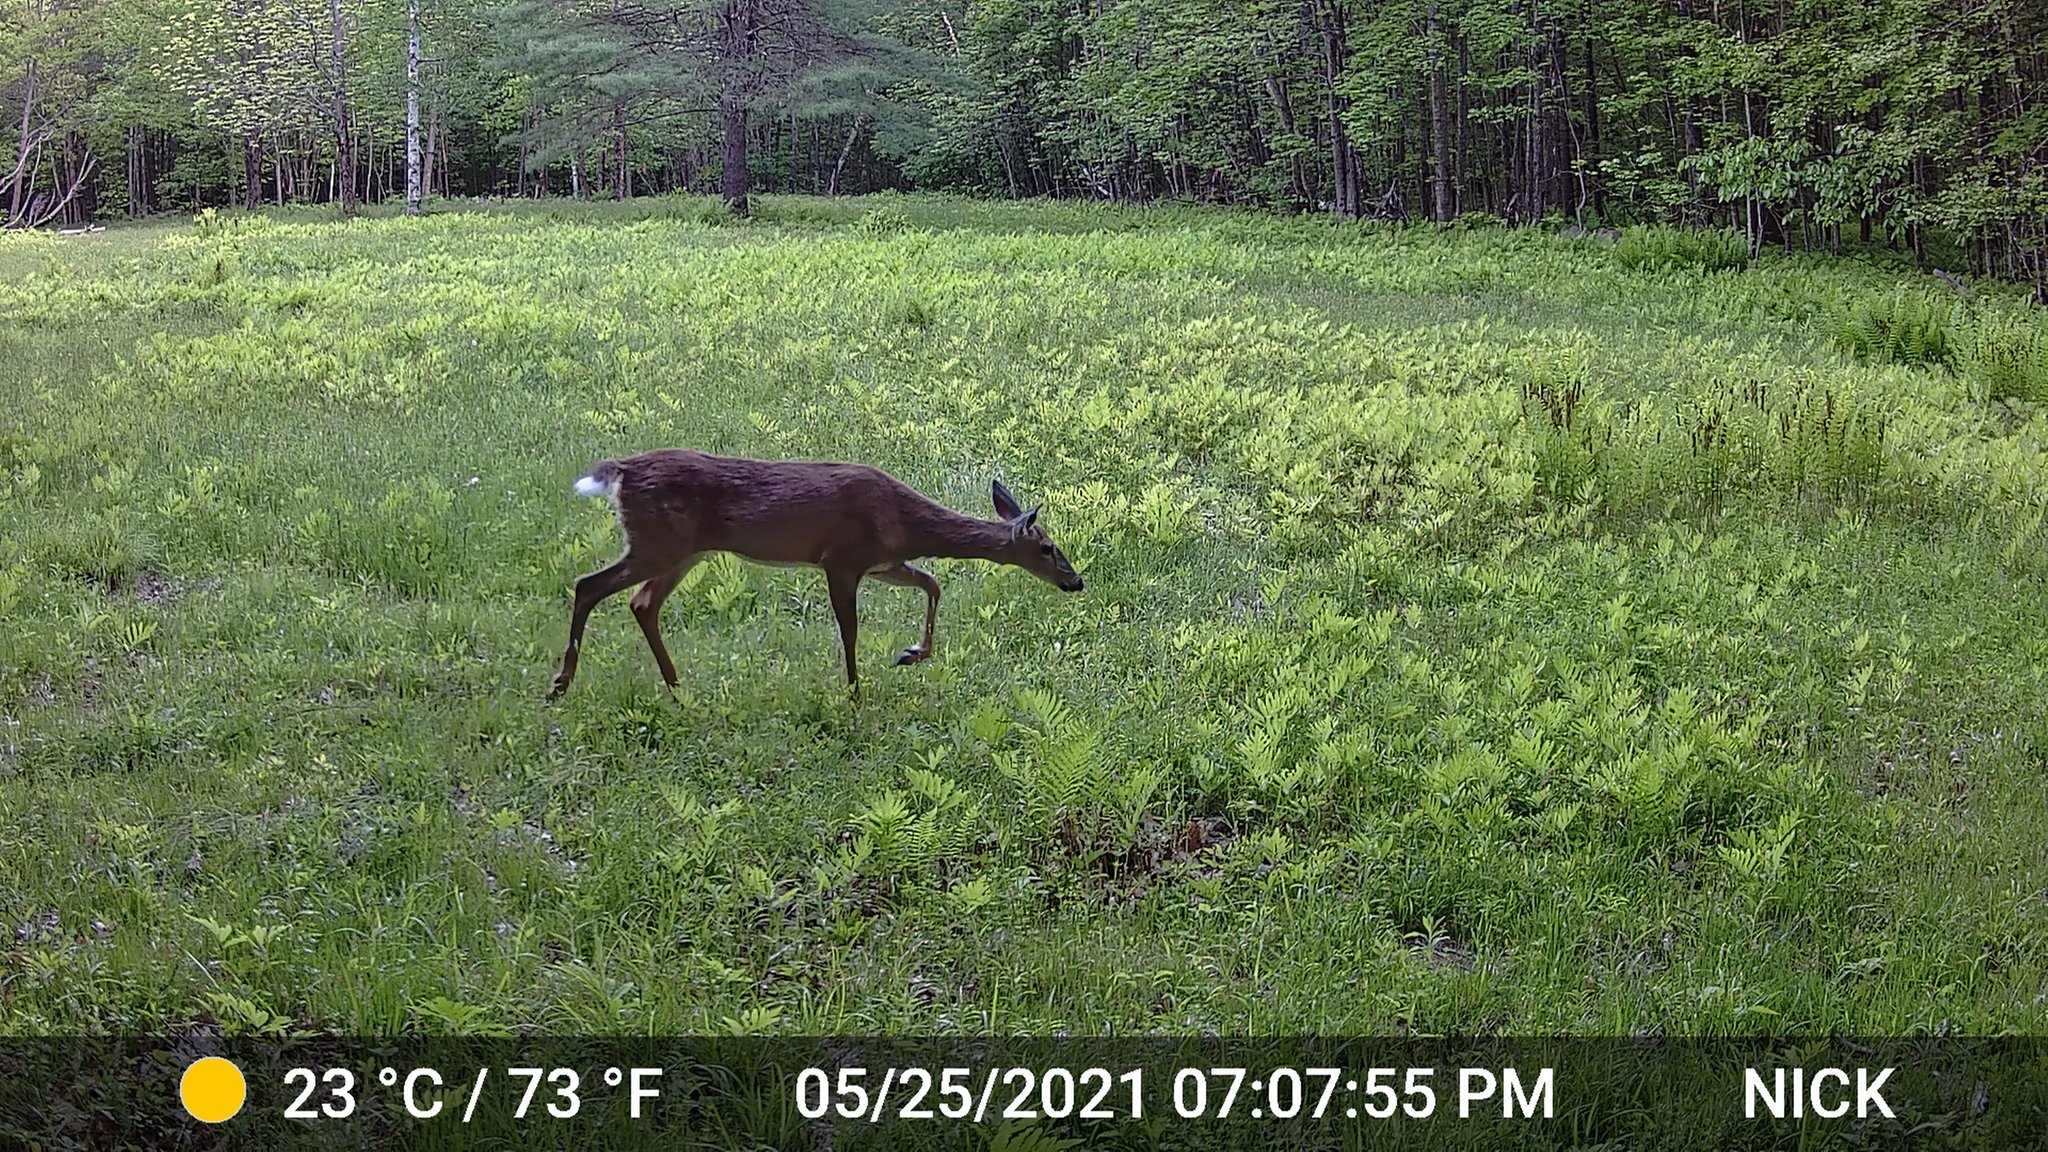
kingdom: Animalia
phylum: Chordata
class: Mammalia
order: Artiodactyla
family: Cervidae
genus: Odocoileus
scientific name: Odocoileus virginianus
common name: White-tailed deer
